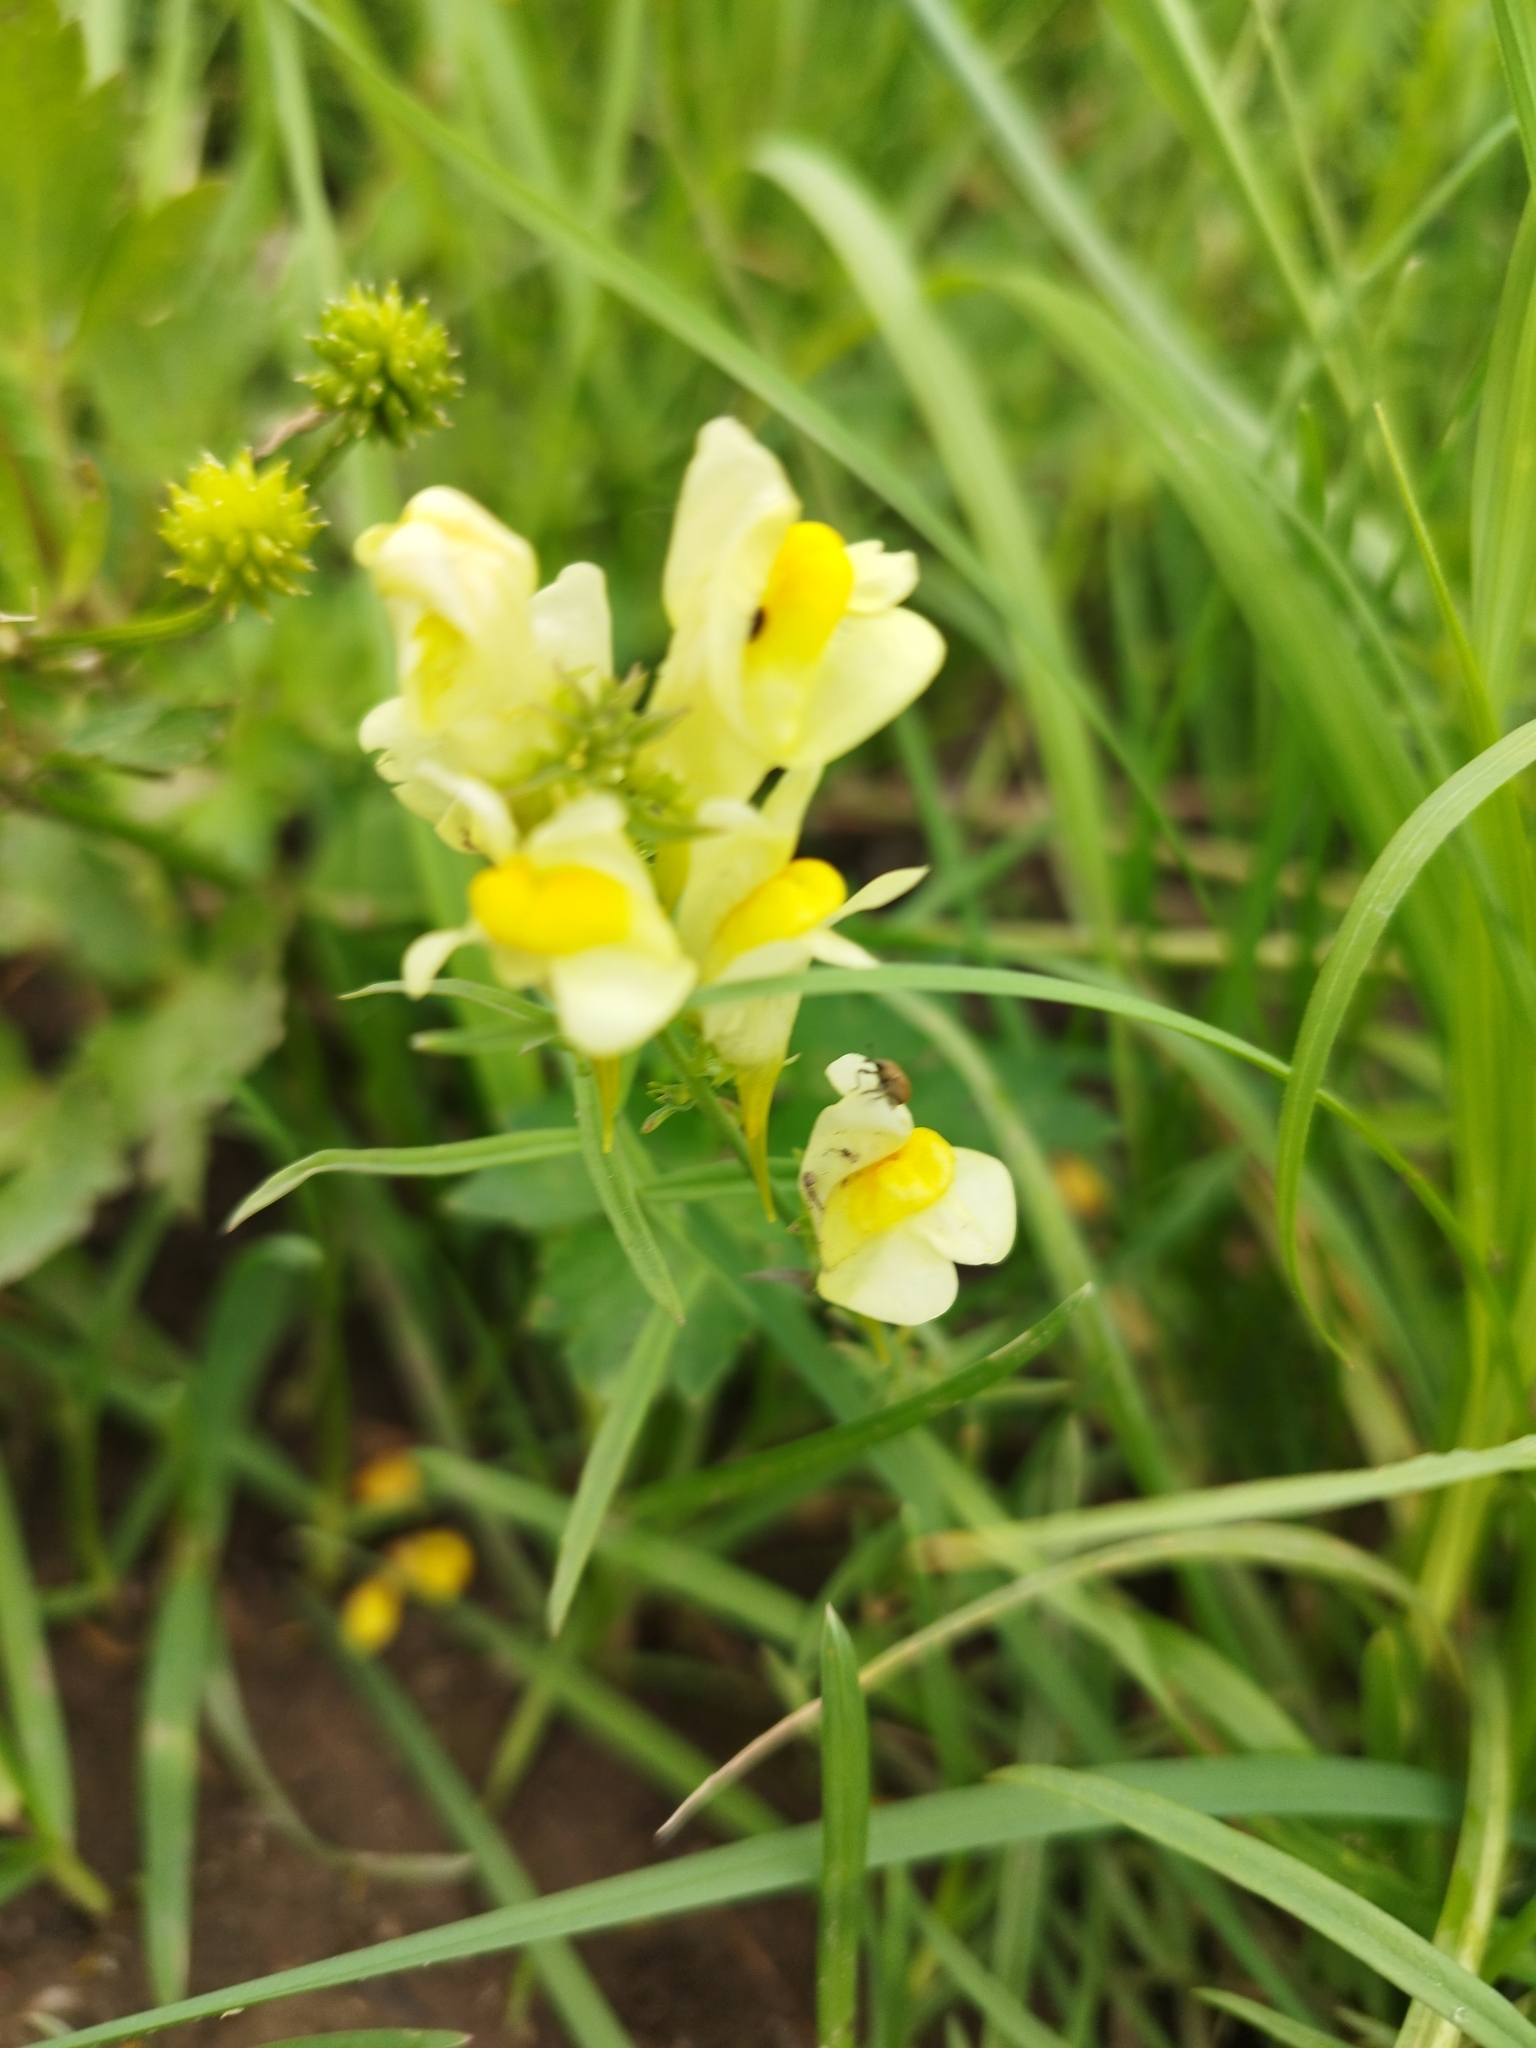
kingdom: Plantae
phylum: Tracheophyta
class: Magnoliopsida
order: Lamiales
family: Plantaginaceae
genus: Linaria
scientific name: Linaria vulgaris
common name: Butter and eggs
